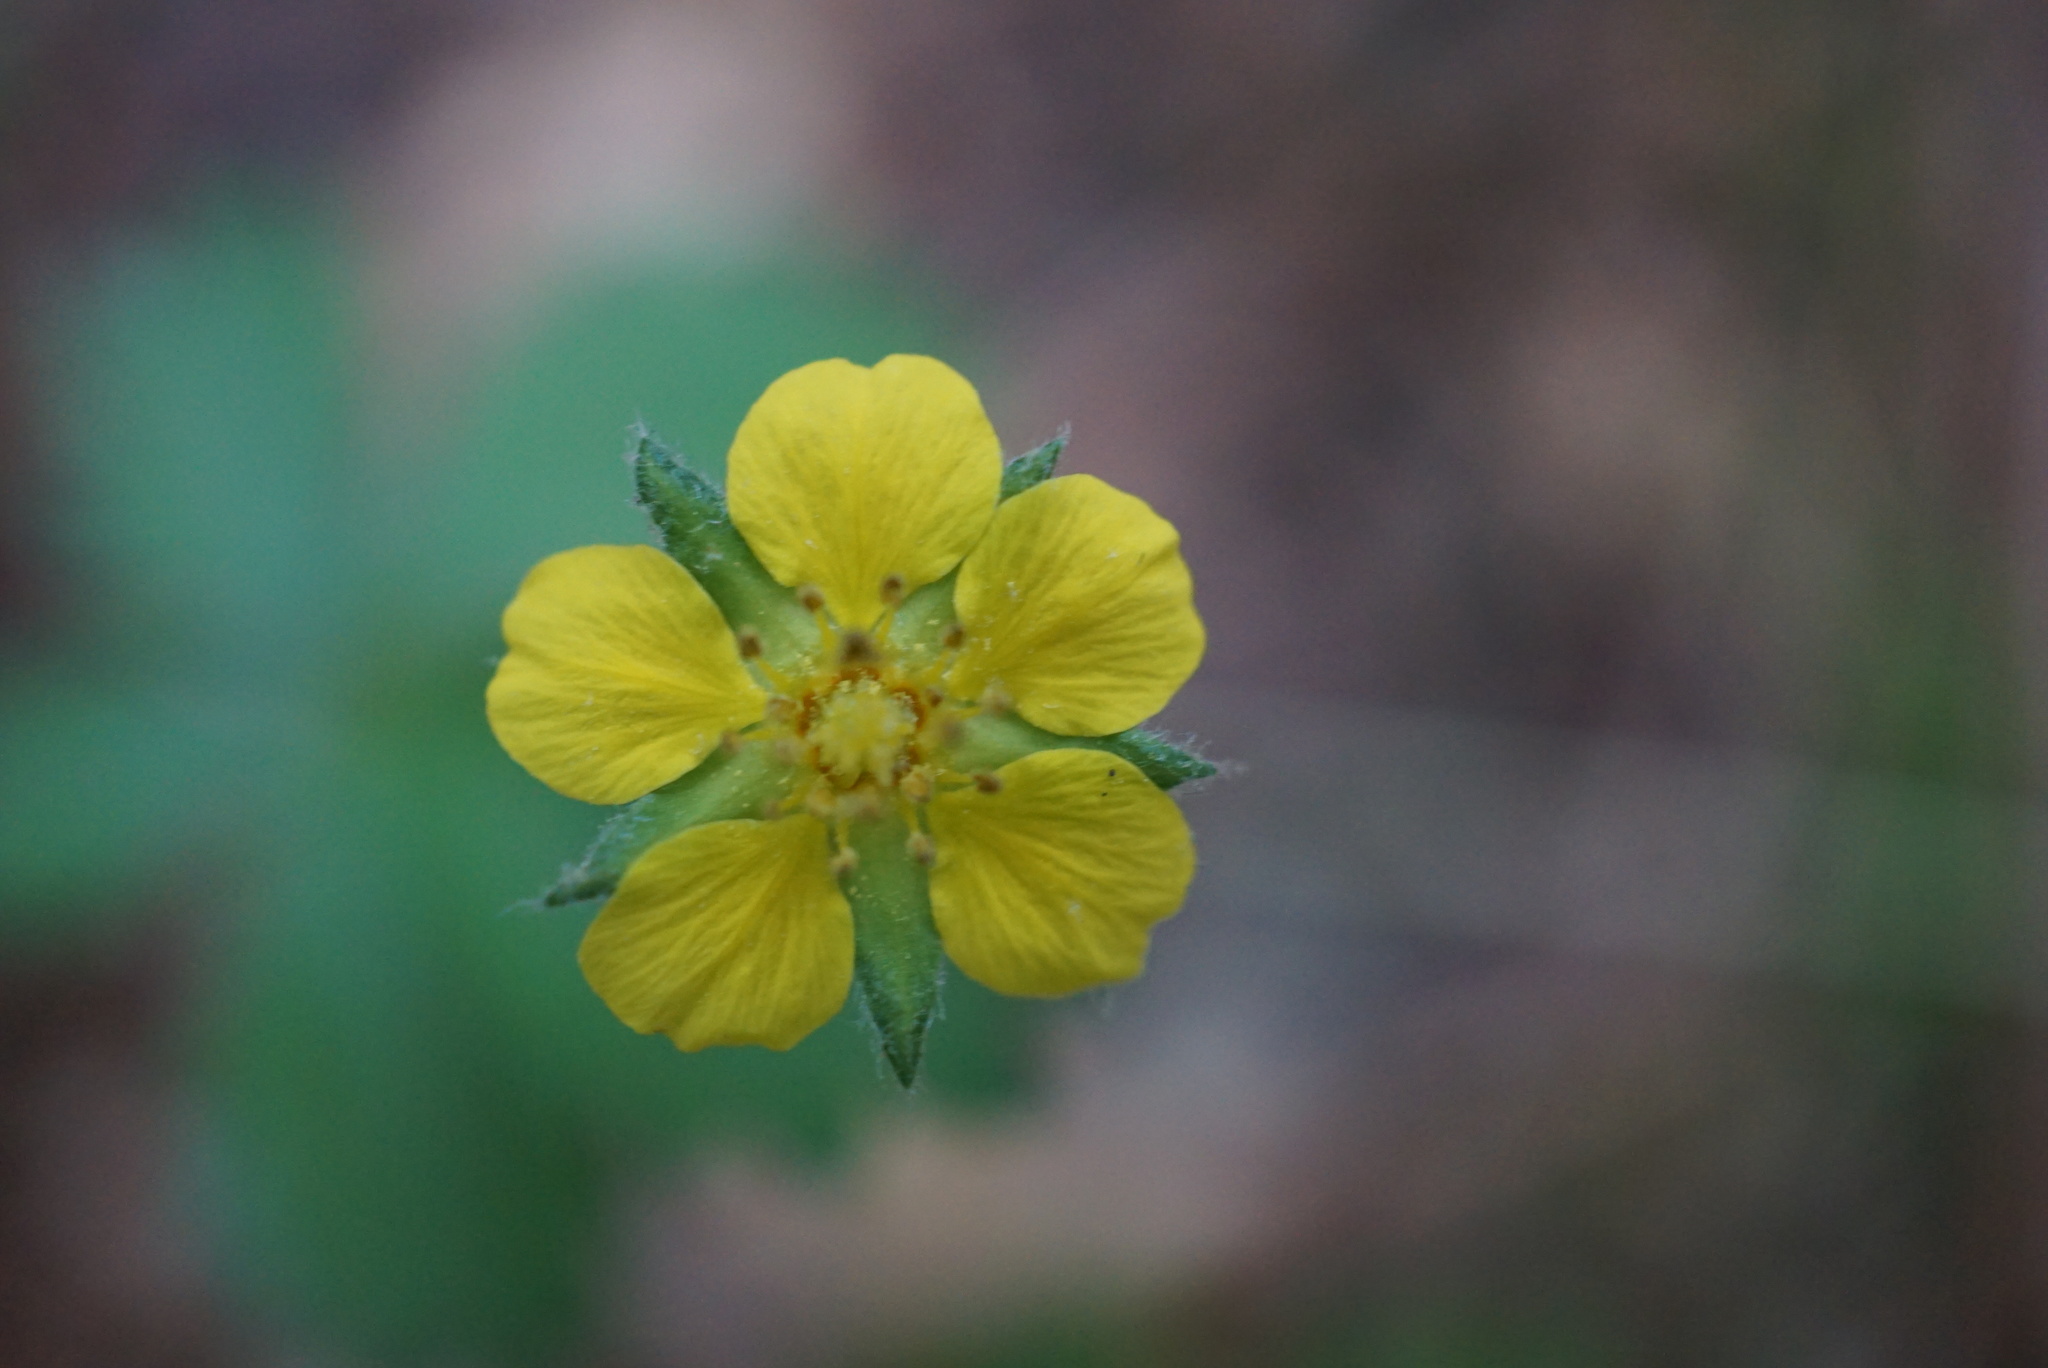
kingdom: Plantae
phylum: Tracheophyta
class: Magnoliopsida
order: Rosales
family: Rosaceae
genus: Potentilla
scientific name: Potentilla simplex
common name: Old field cinquefoil
